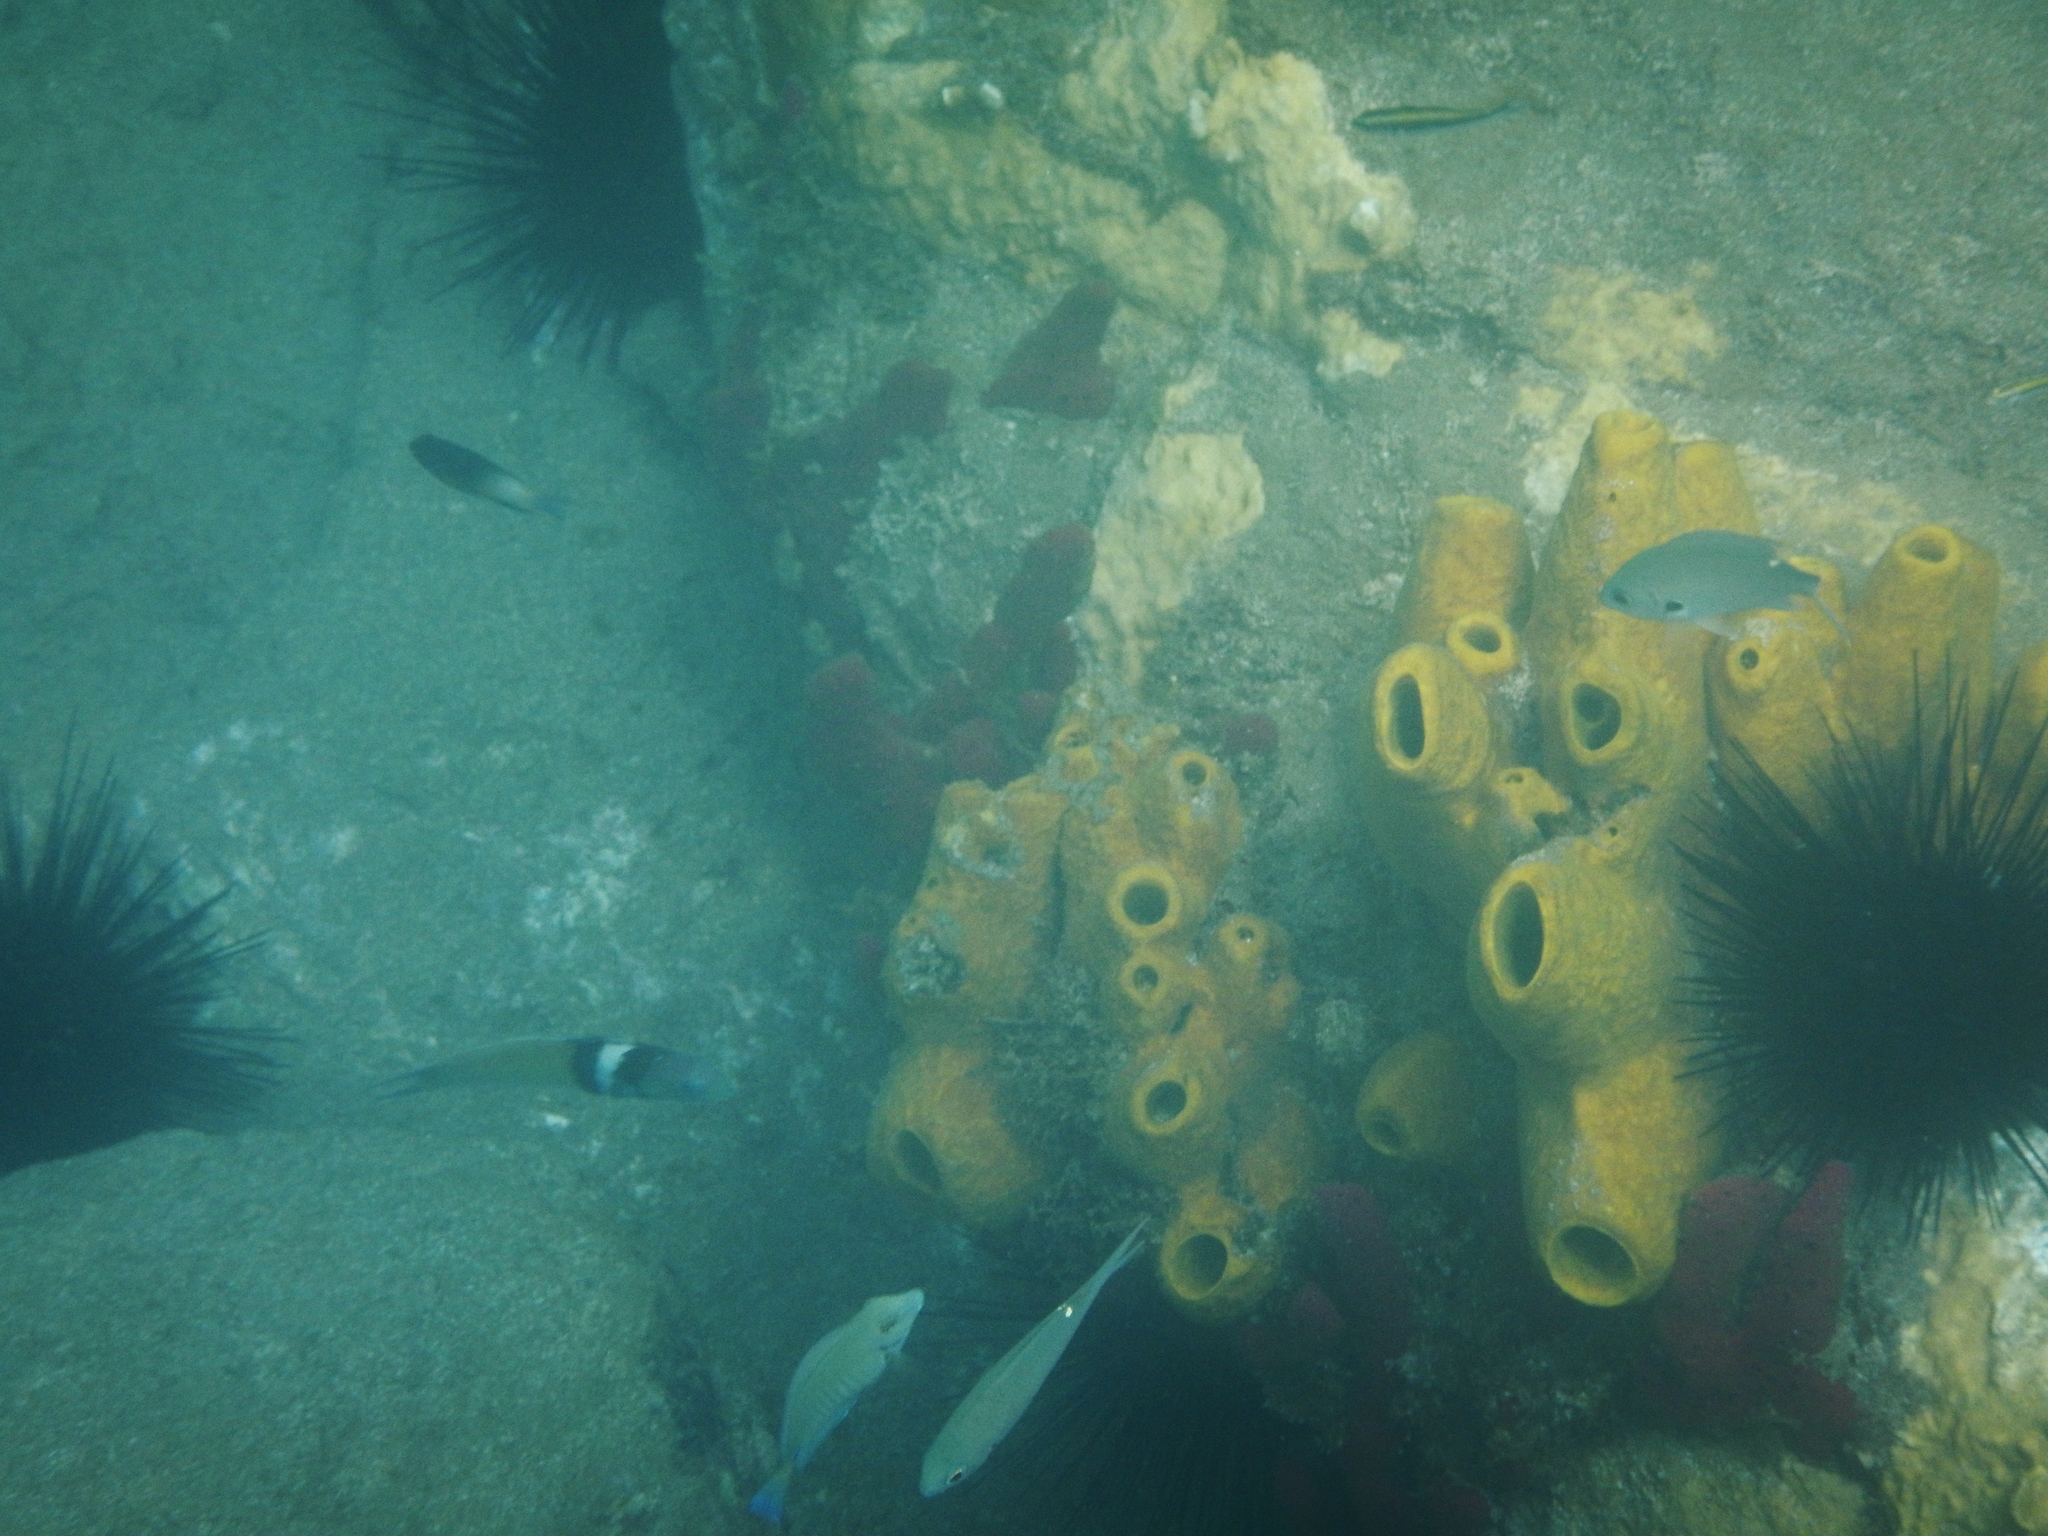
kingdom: Animalia
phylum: Porifera
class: Demospongiae
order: Verongiida
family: Aplysinidae
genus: Aplysina
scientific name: Aplysina fistularis
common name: Candle sponge
